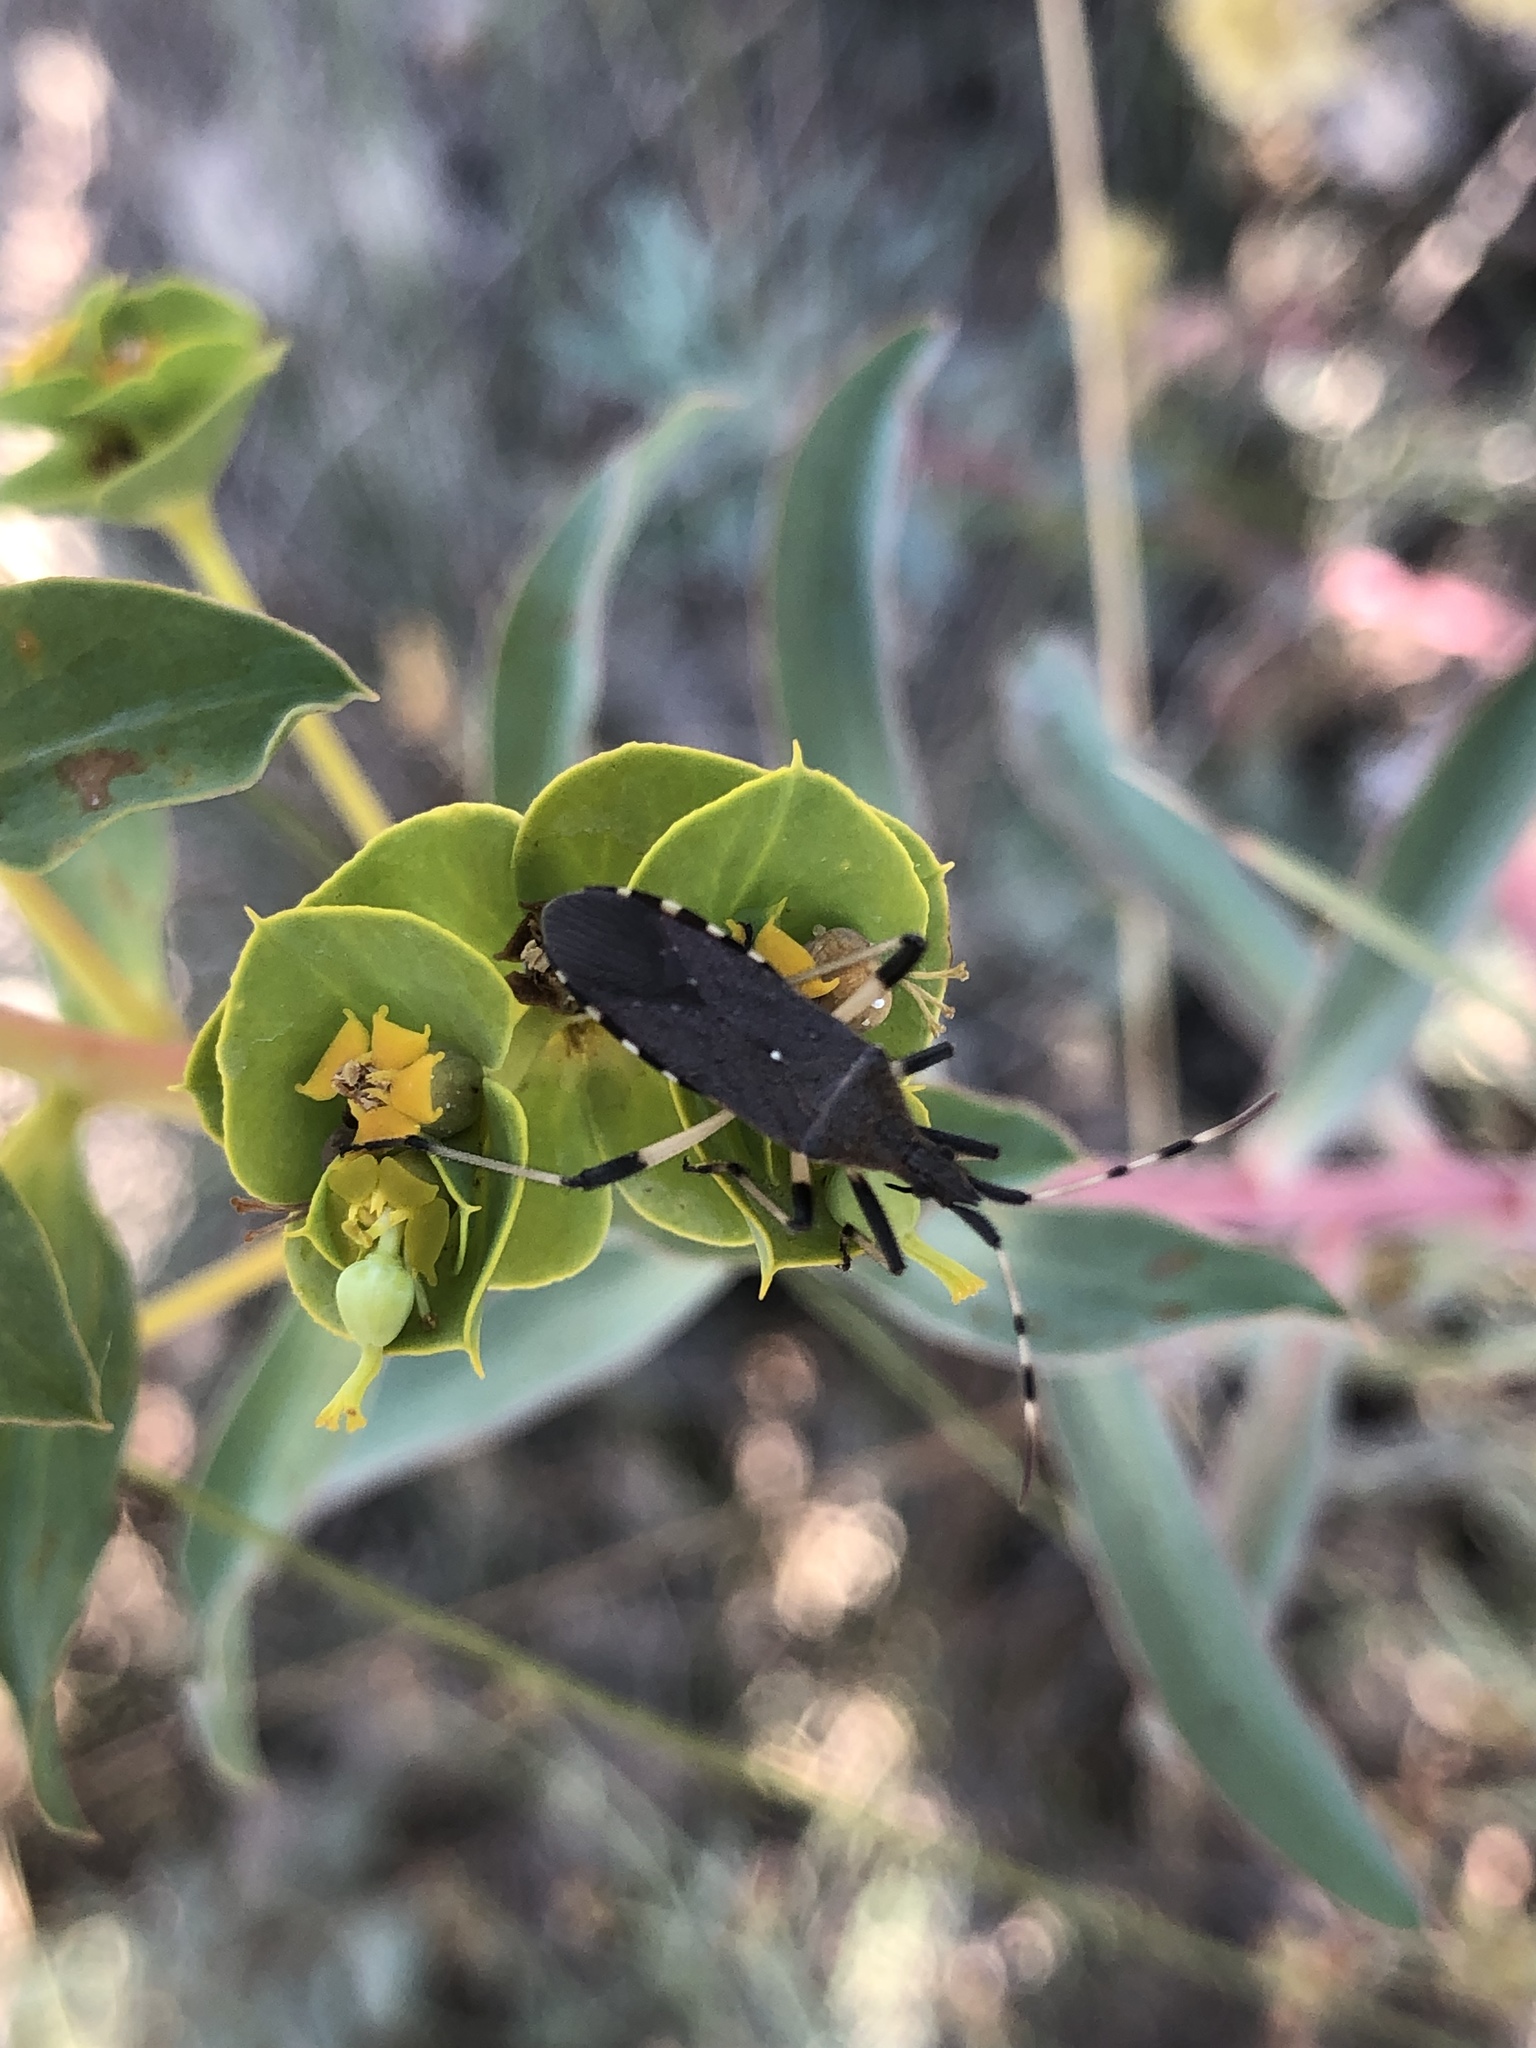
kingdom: Animalia
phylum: Arthropoda
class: Insecta
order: Hemiptera
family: Stenocephalidae
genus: Dicranocephalus
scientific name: Dicranocephalus albipes
